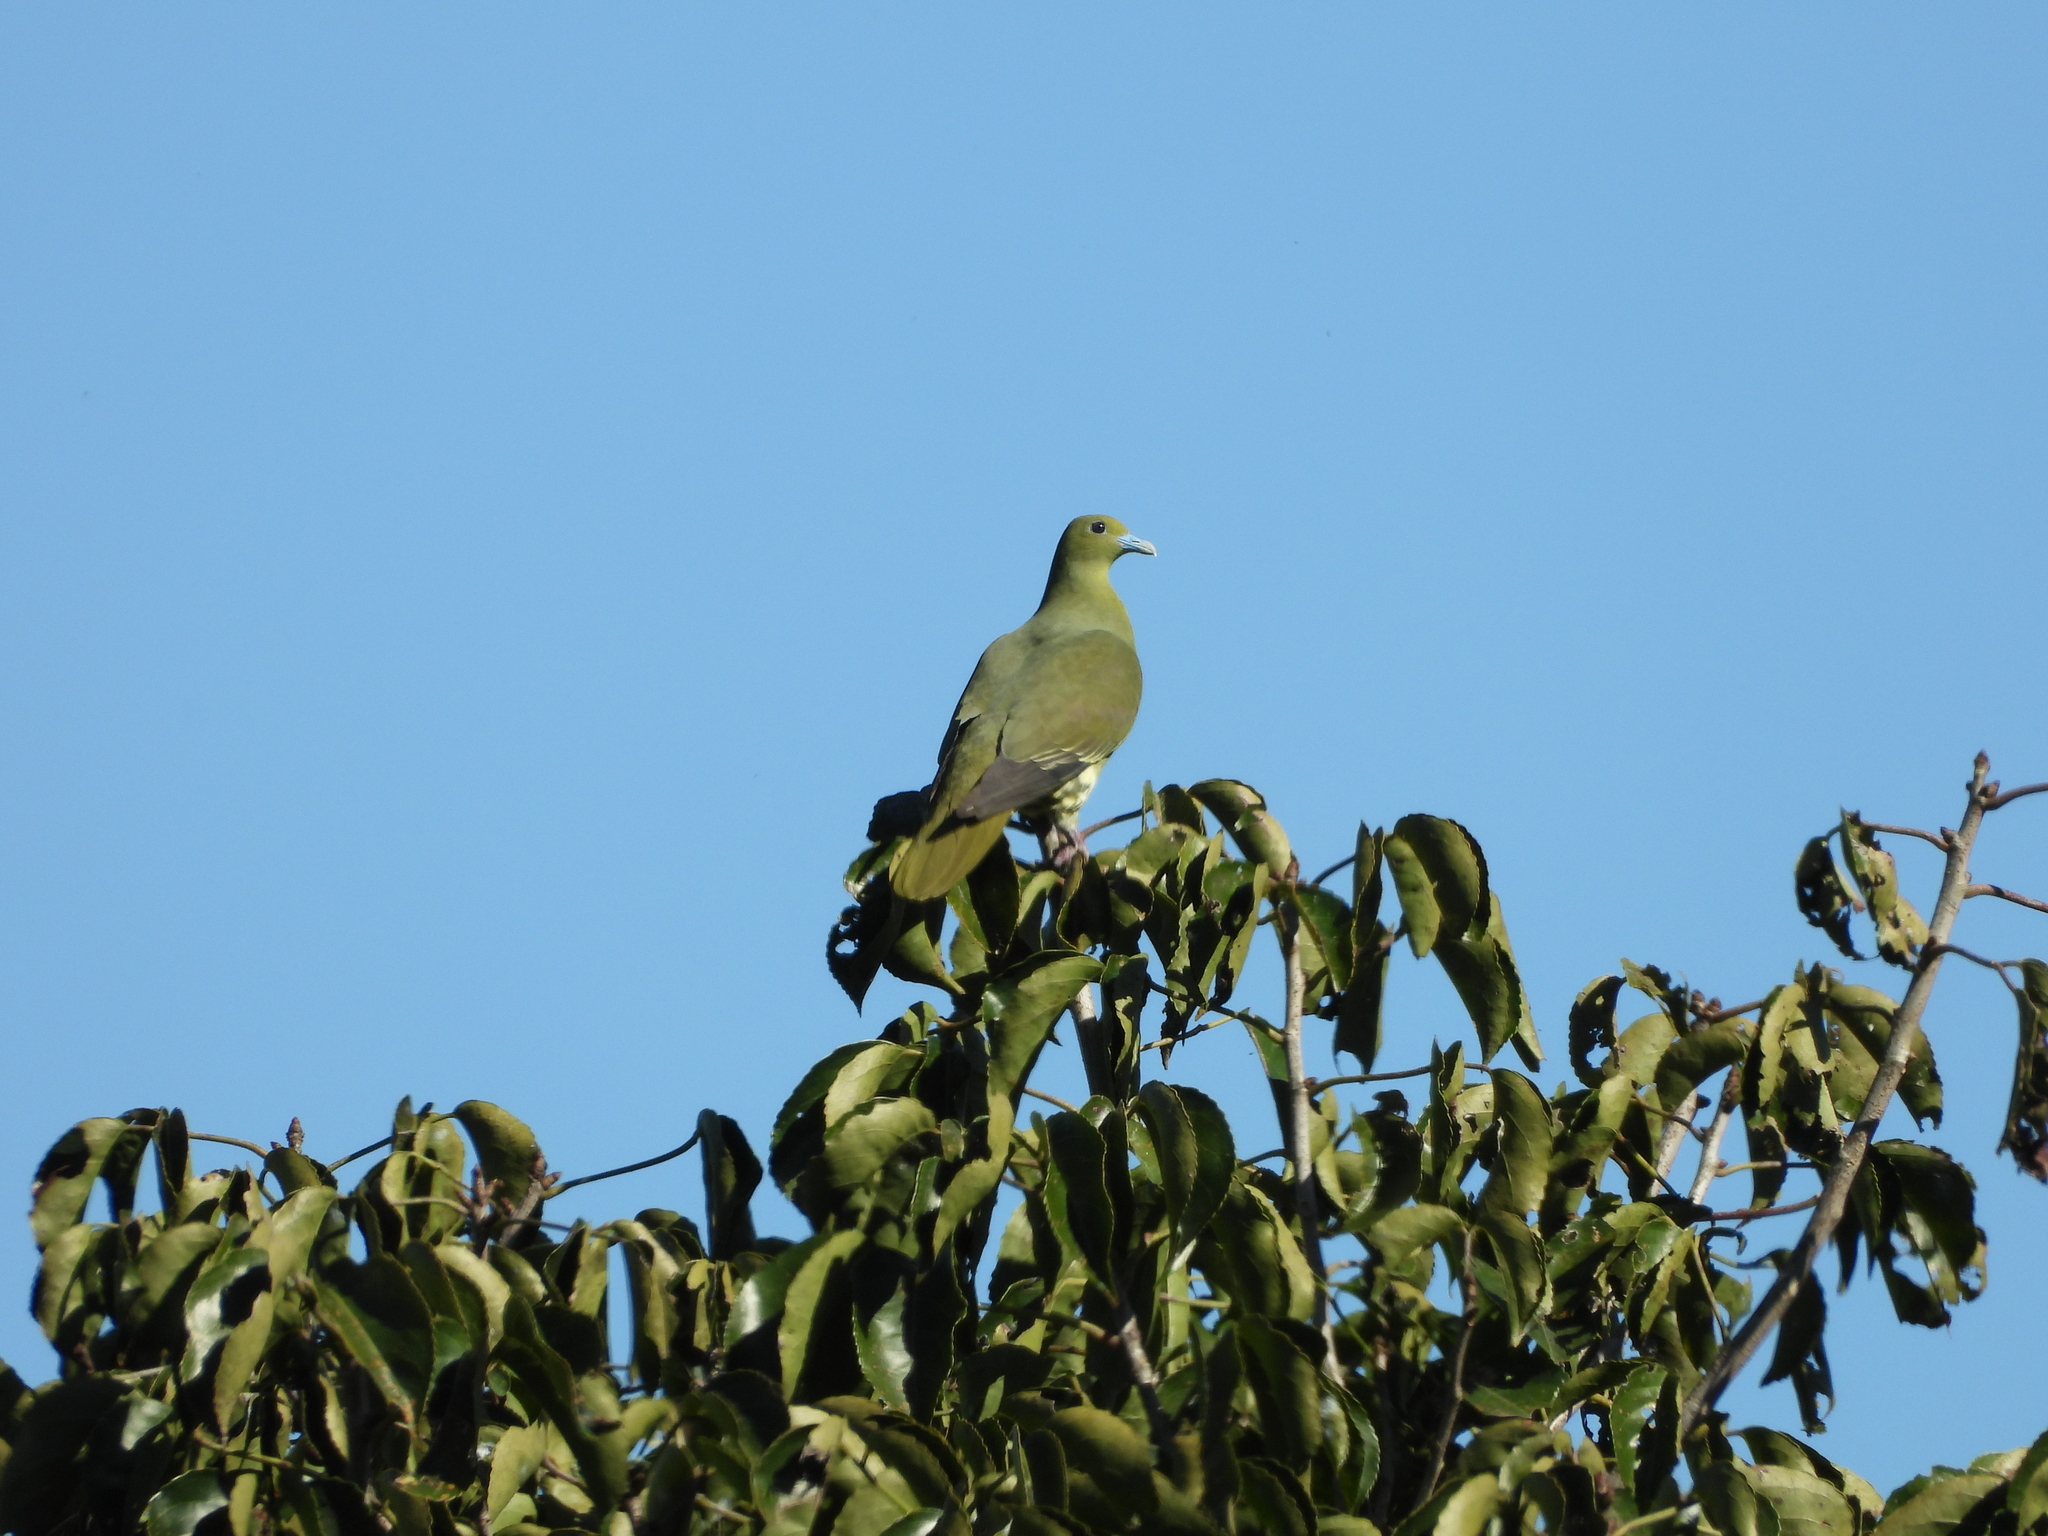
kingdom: Animalia
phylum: Chordata
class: Aves
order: Columbiformes
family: Columbidae
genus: Treron
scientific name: Treron sieboldii
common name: White-bellied green pigeon
